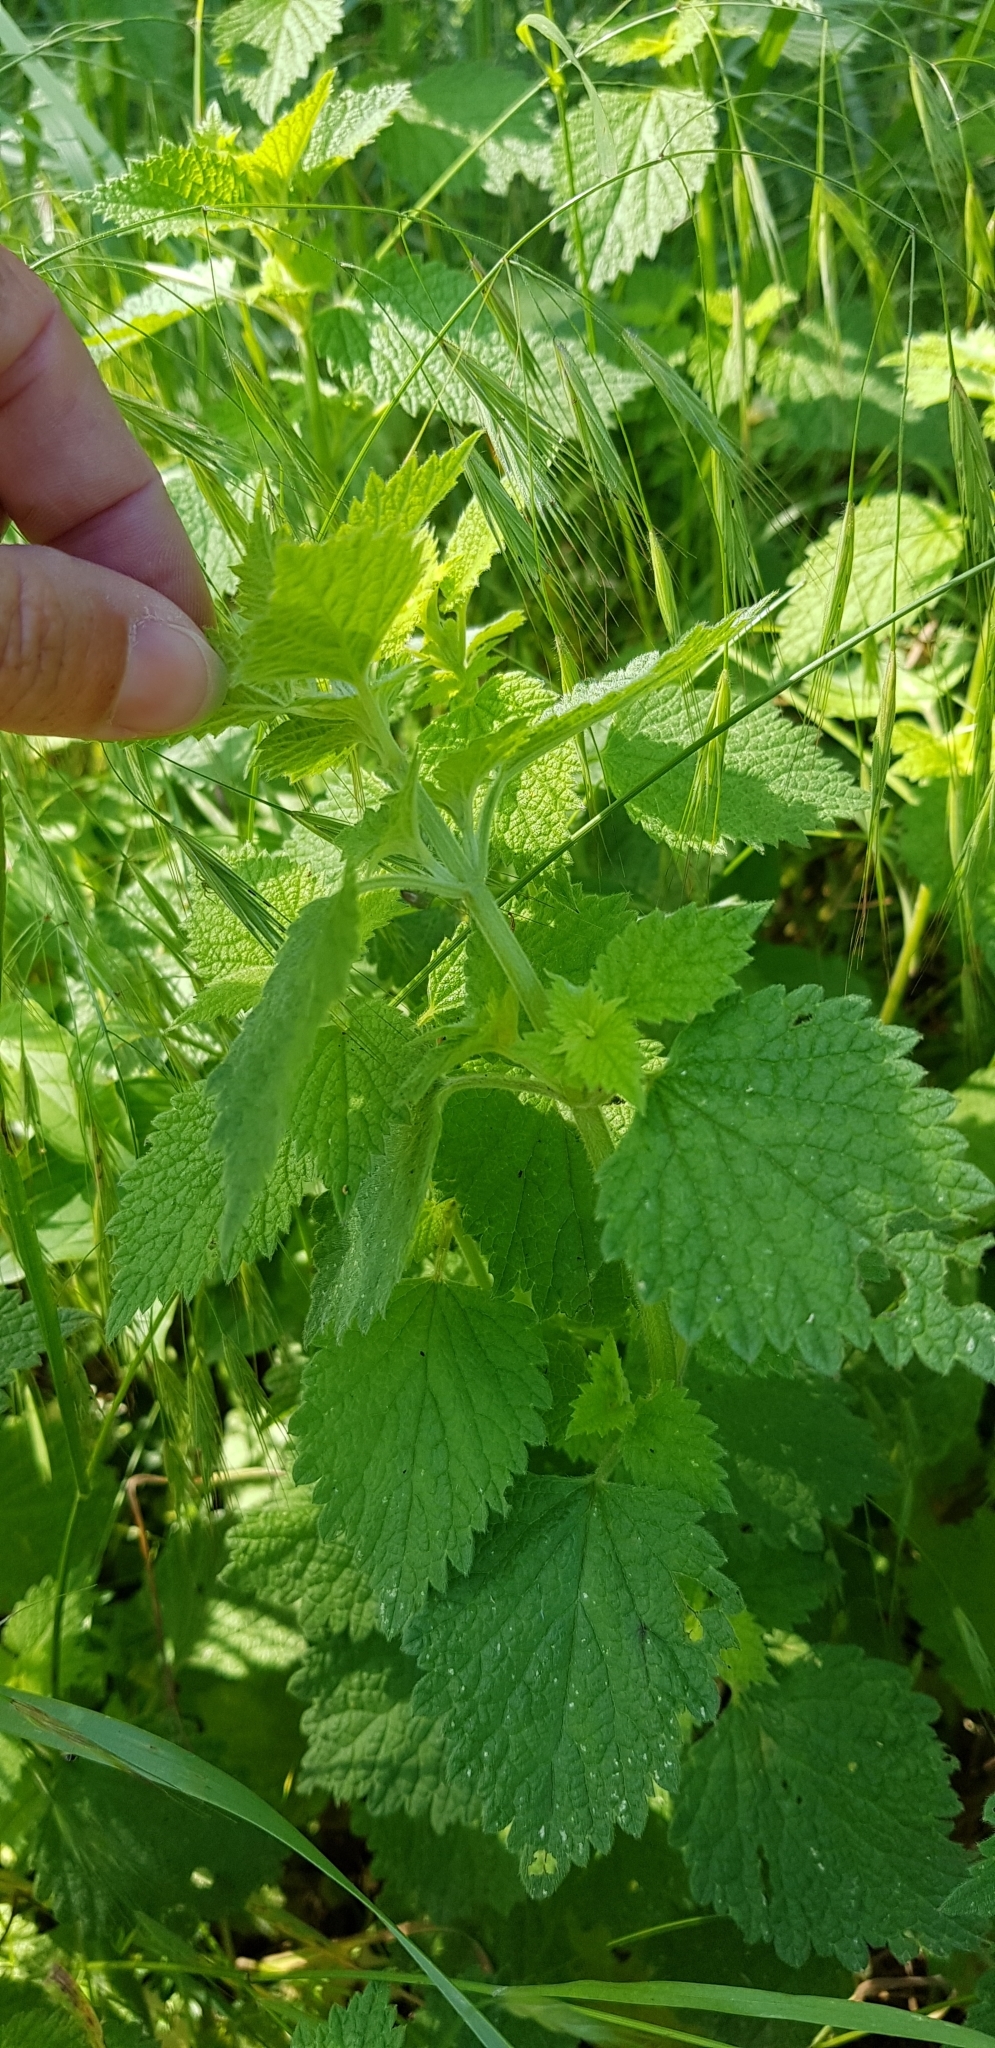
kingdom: Plantae
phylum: Tracheophyta
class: Magnoliopsida
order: Lamiales
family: Lamiaceae
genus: Ballota
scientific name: Ballota nigra
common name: Black horehound
